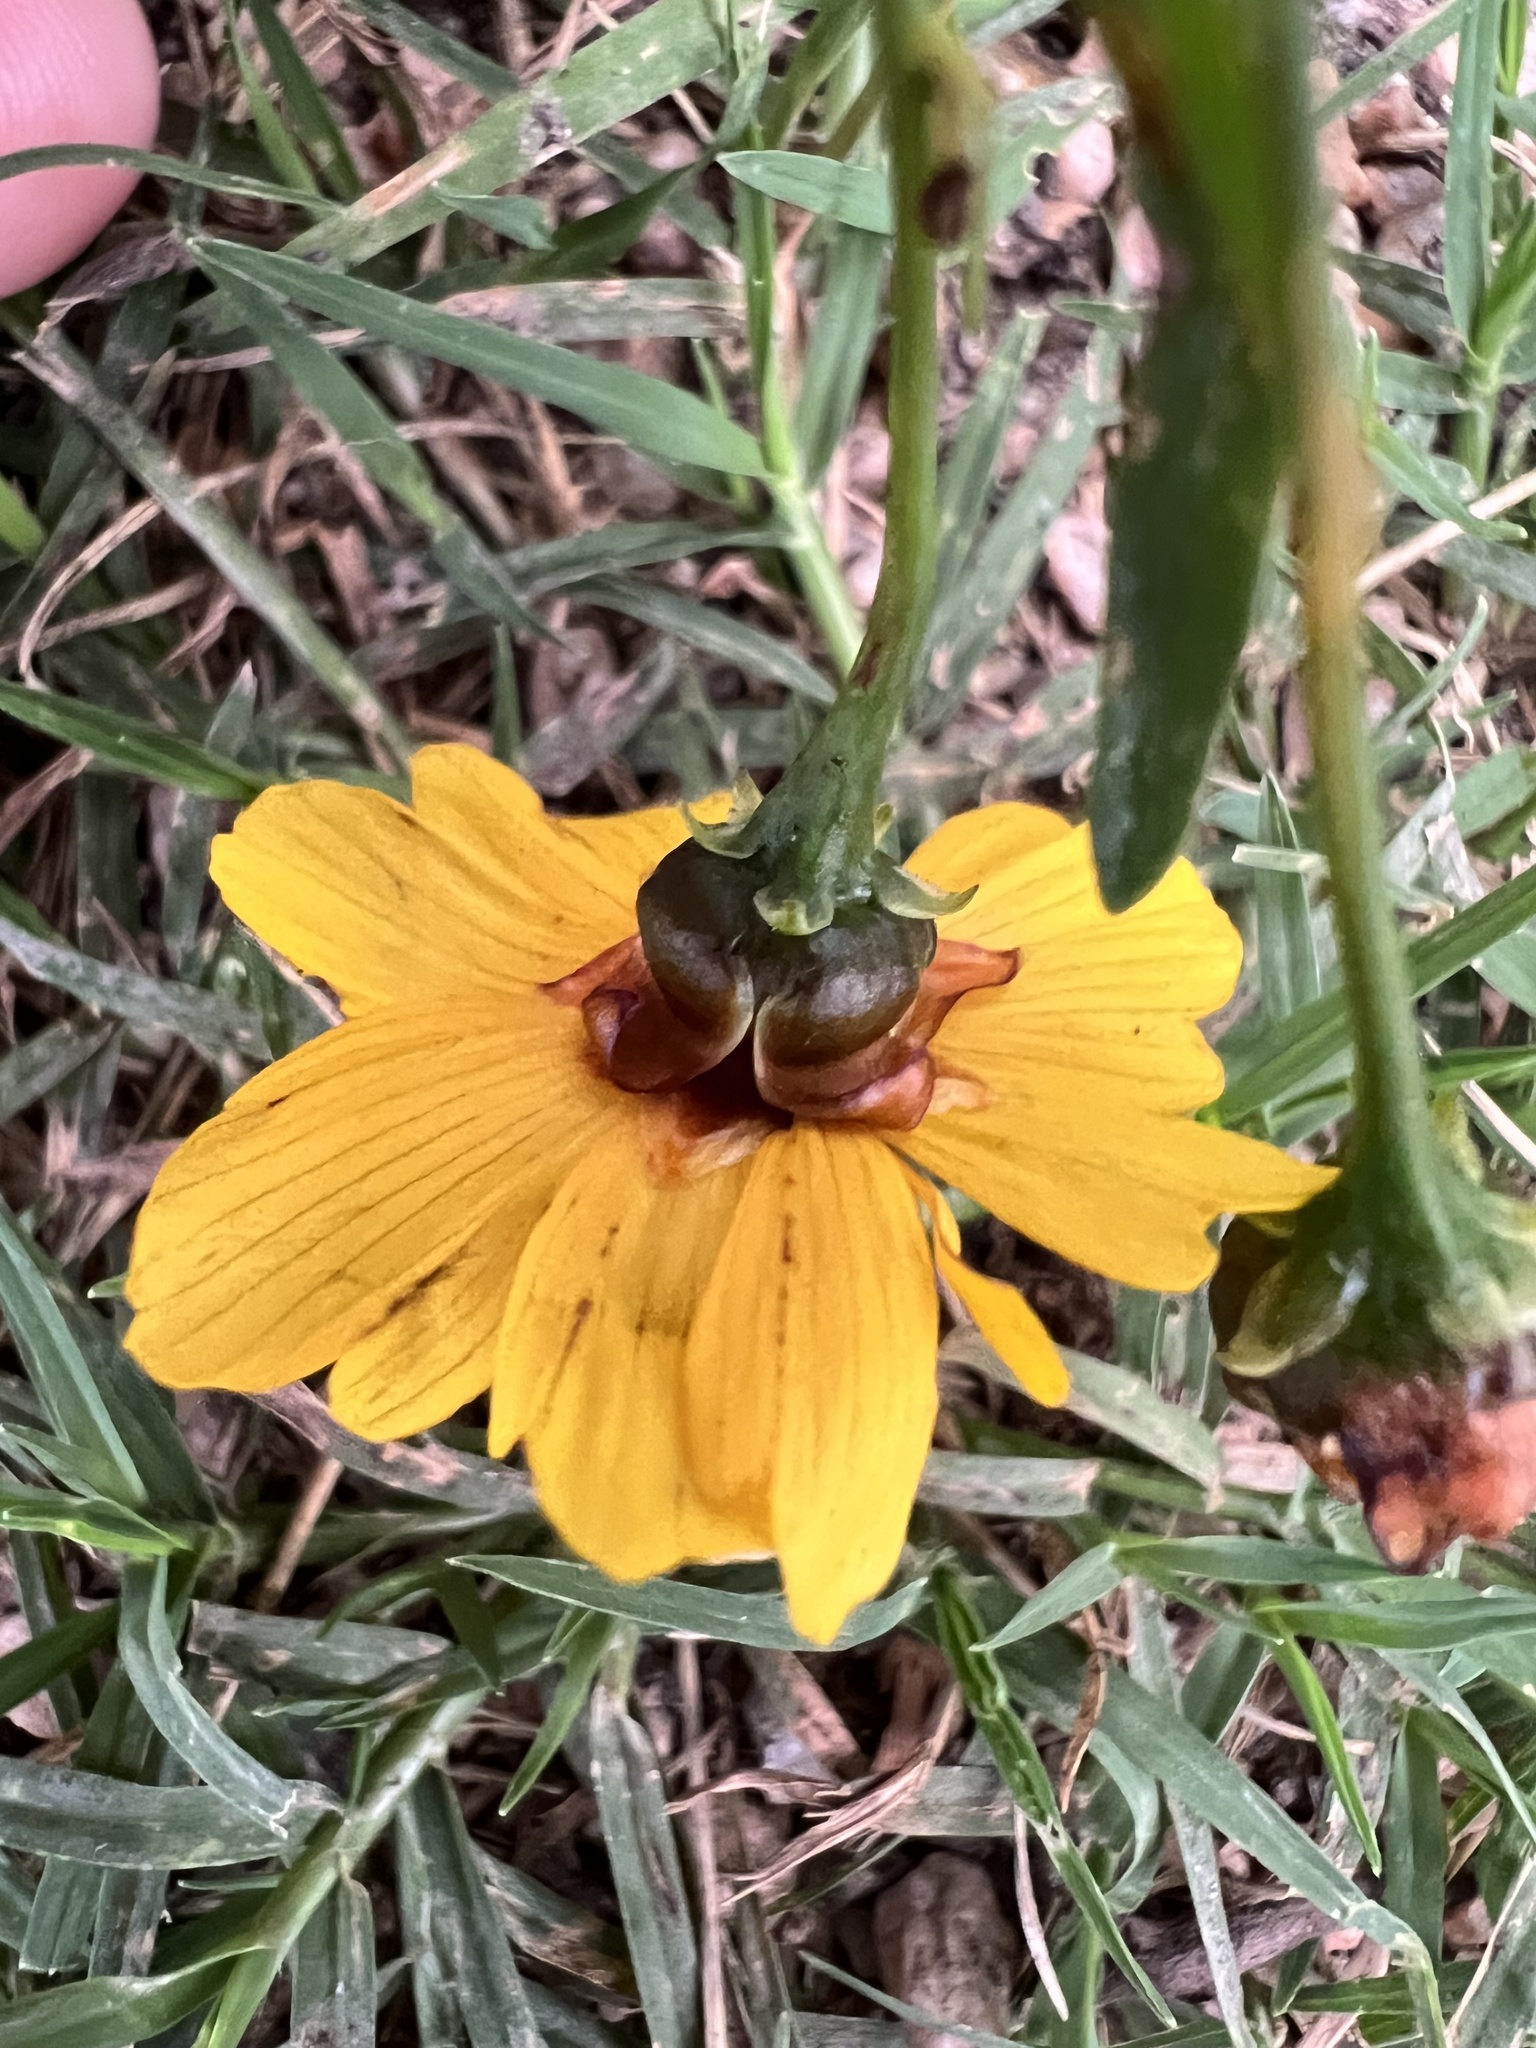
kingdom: Plantae
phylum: Tracheophyta
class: Magnoliopsida
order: Asterales
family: Asteraceae
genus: Coreopsis
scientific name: Coreopsis tinctoria
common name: Garden tickseed
